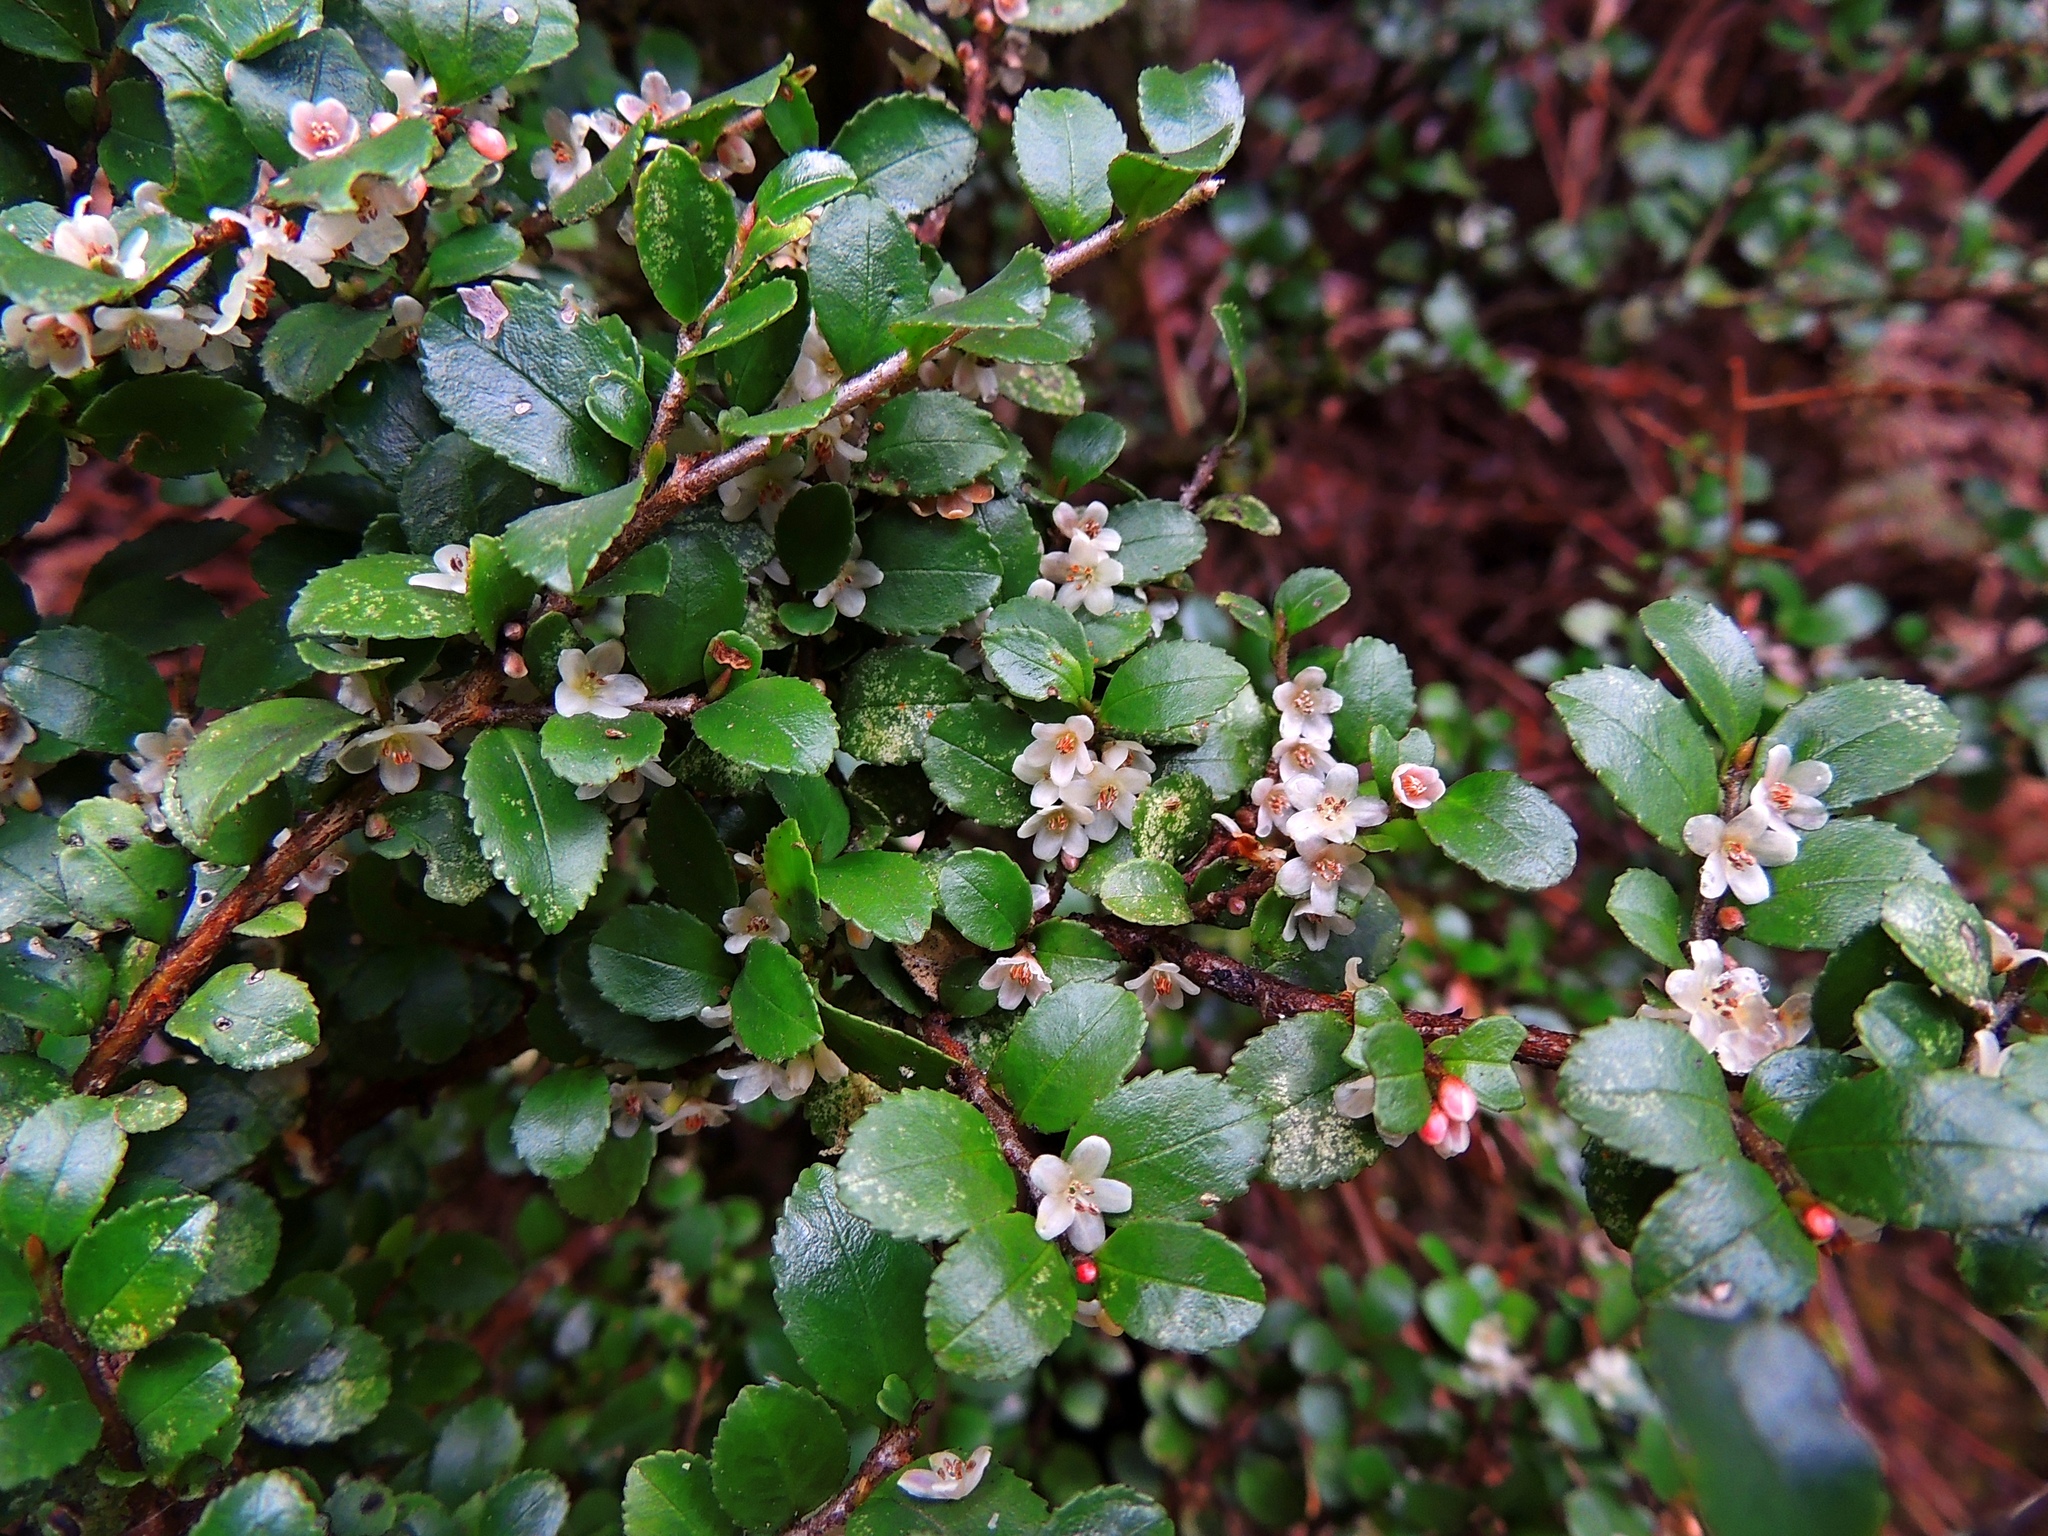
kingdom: Plantae
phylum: Tracheophyta
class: Magnoliopsida
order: Ericales
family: Pentaphylacaceae
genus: Eurya
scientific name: Eurya crenatifolia
